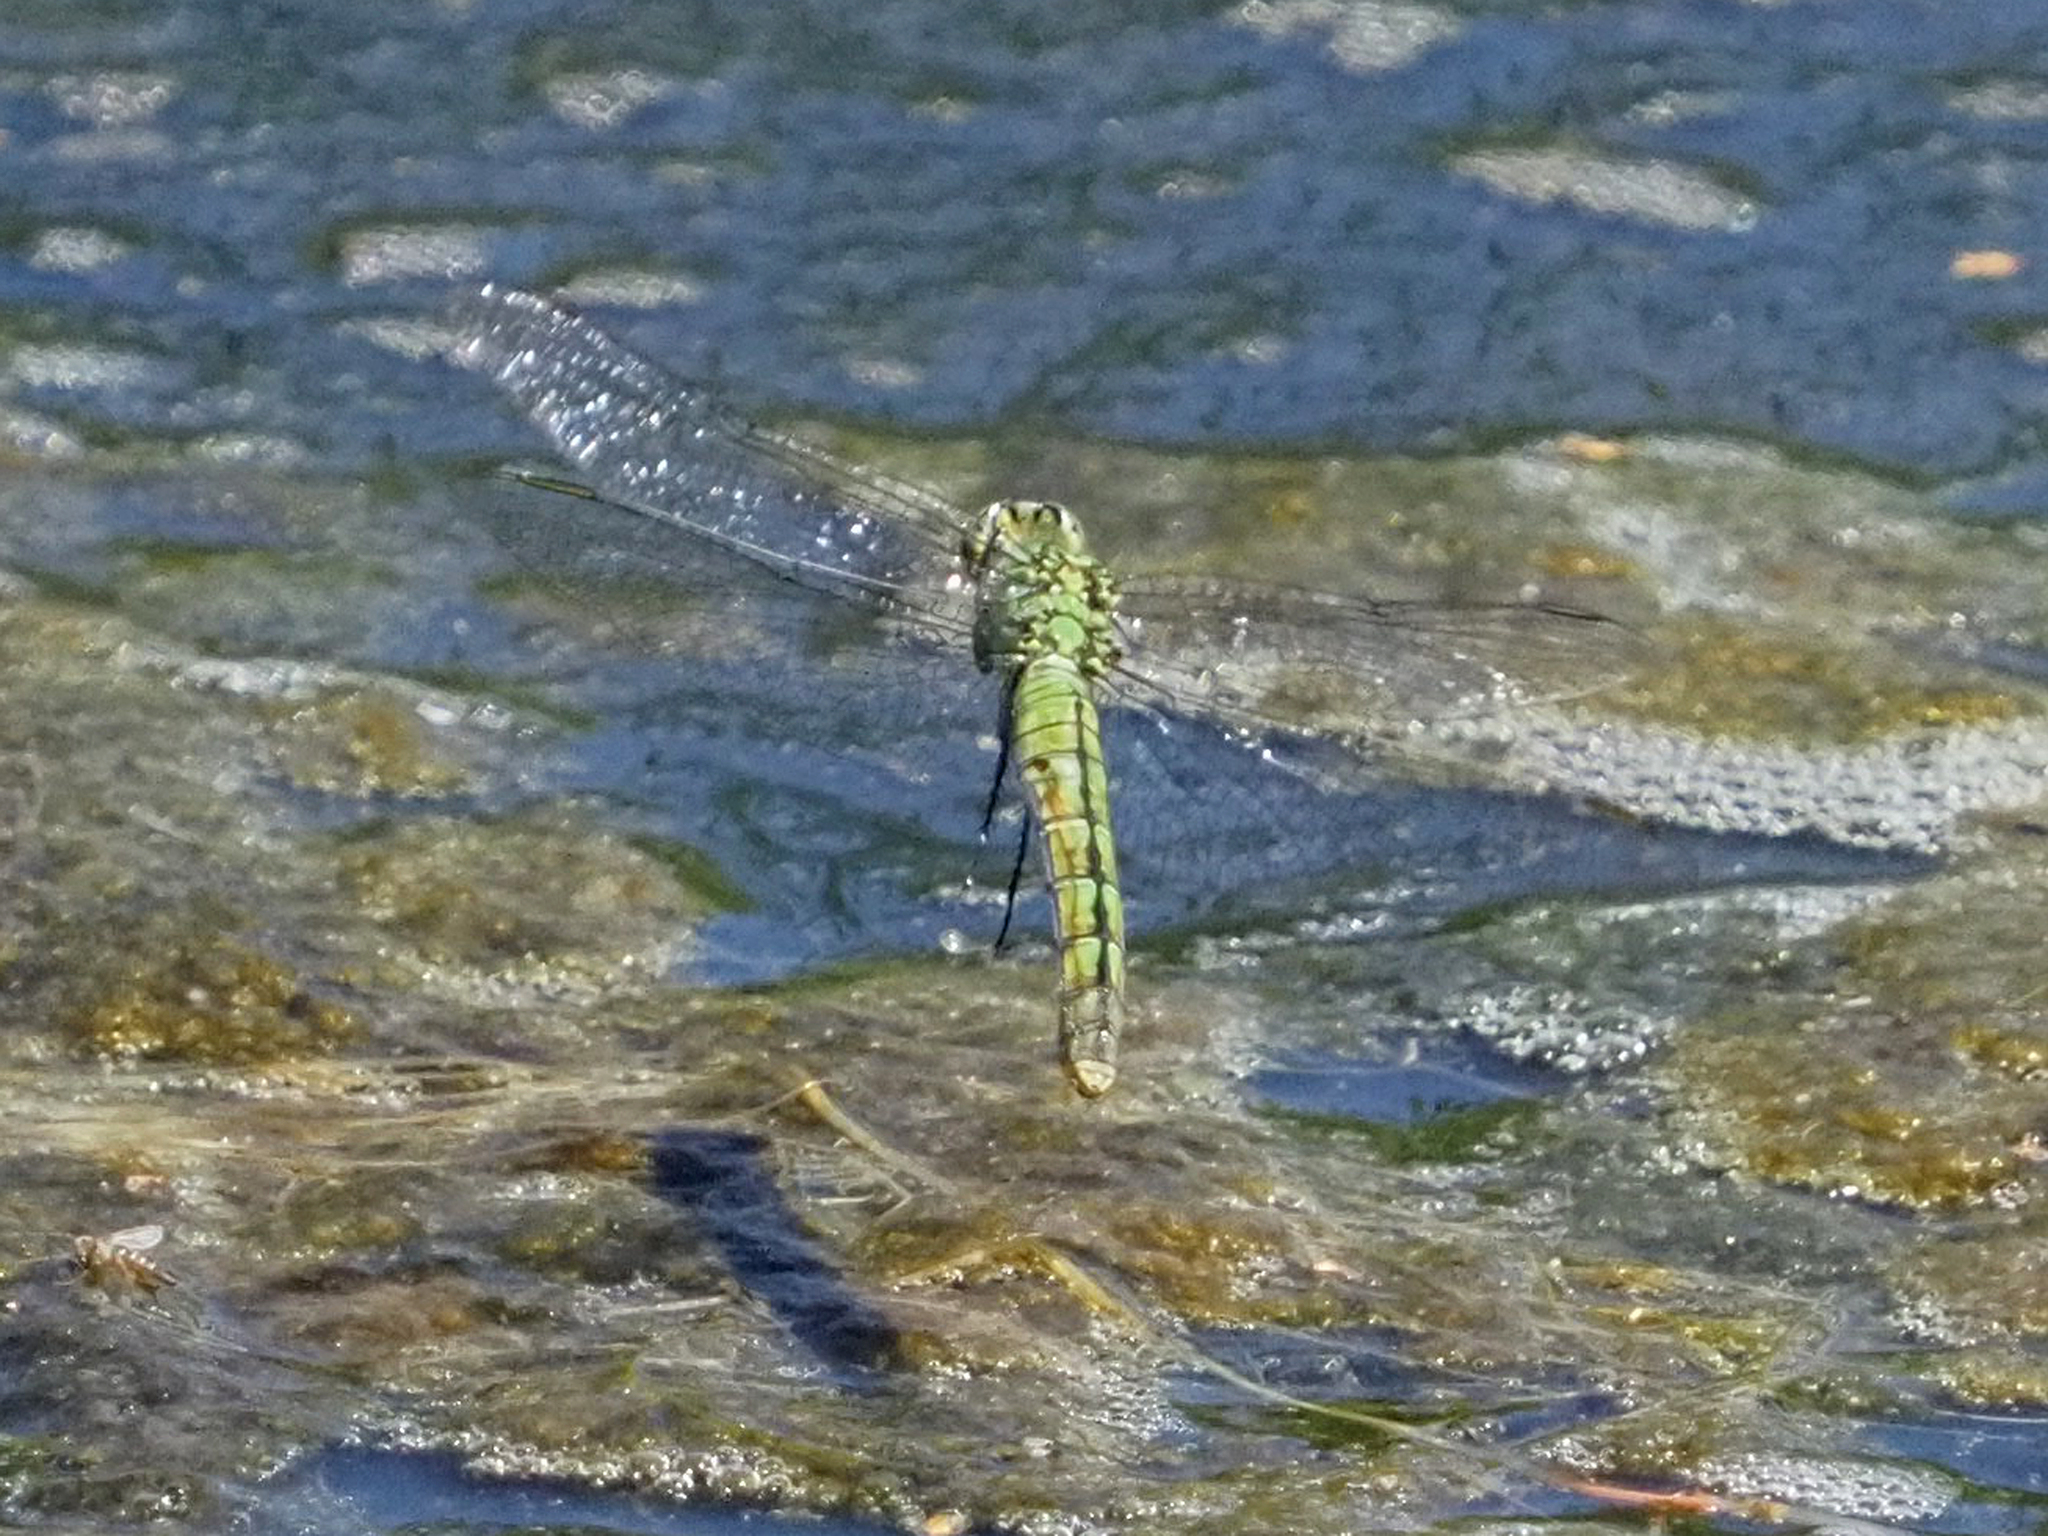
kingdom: Animalia
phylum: Arthropoda
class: Insecta
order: Odonata
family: Libellulidae
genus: Erythemis
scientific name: Erythemis collocata
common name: Western pondhawk
